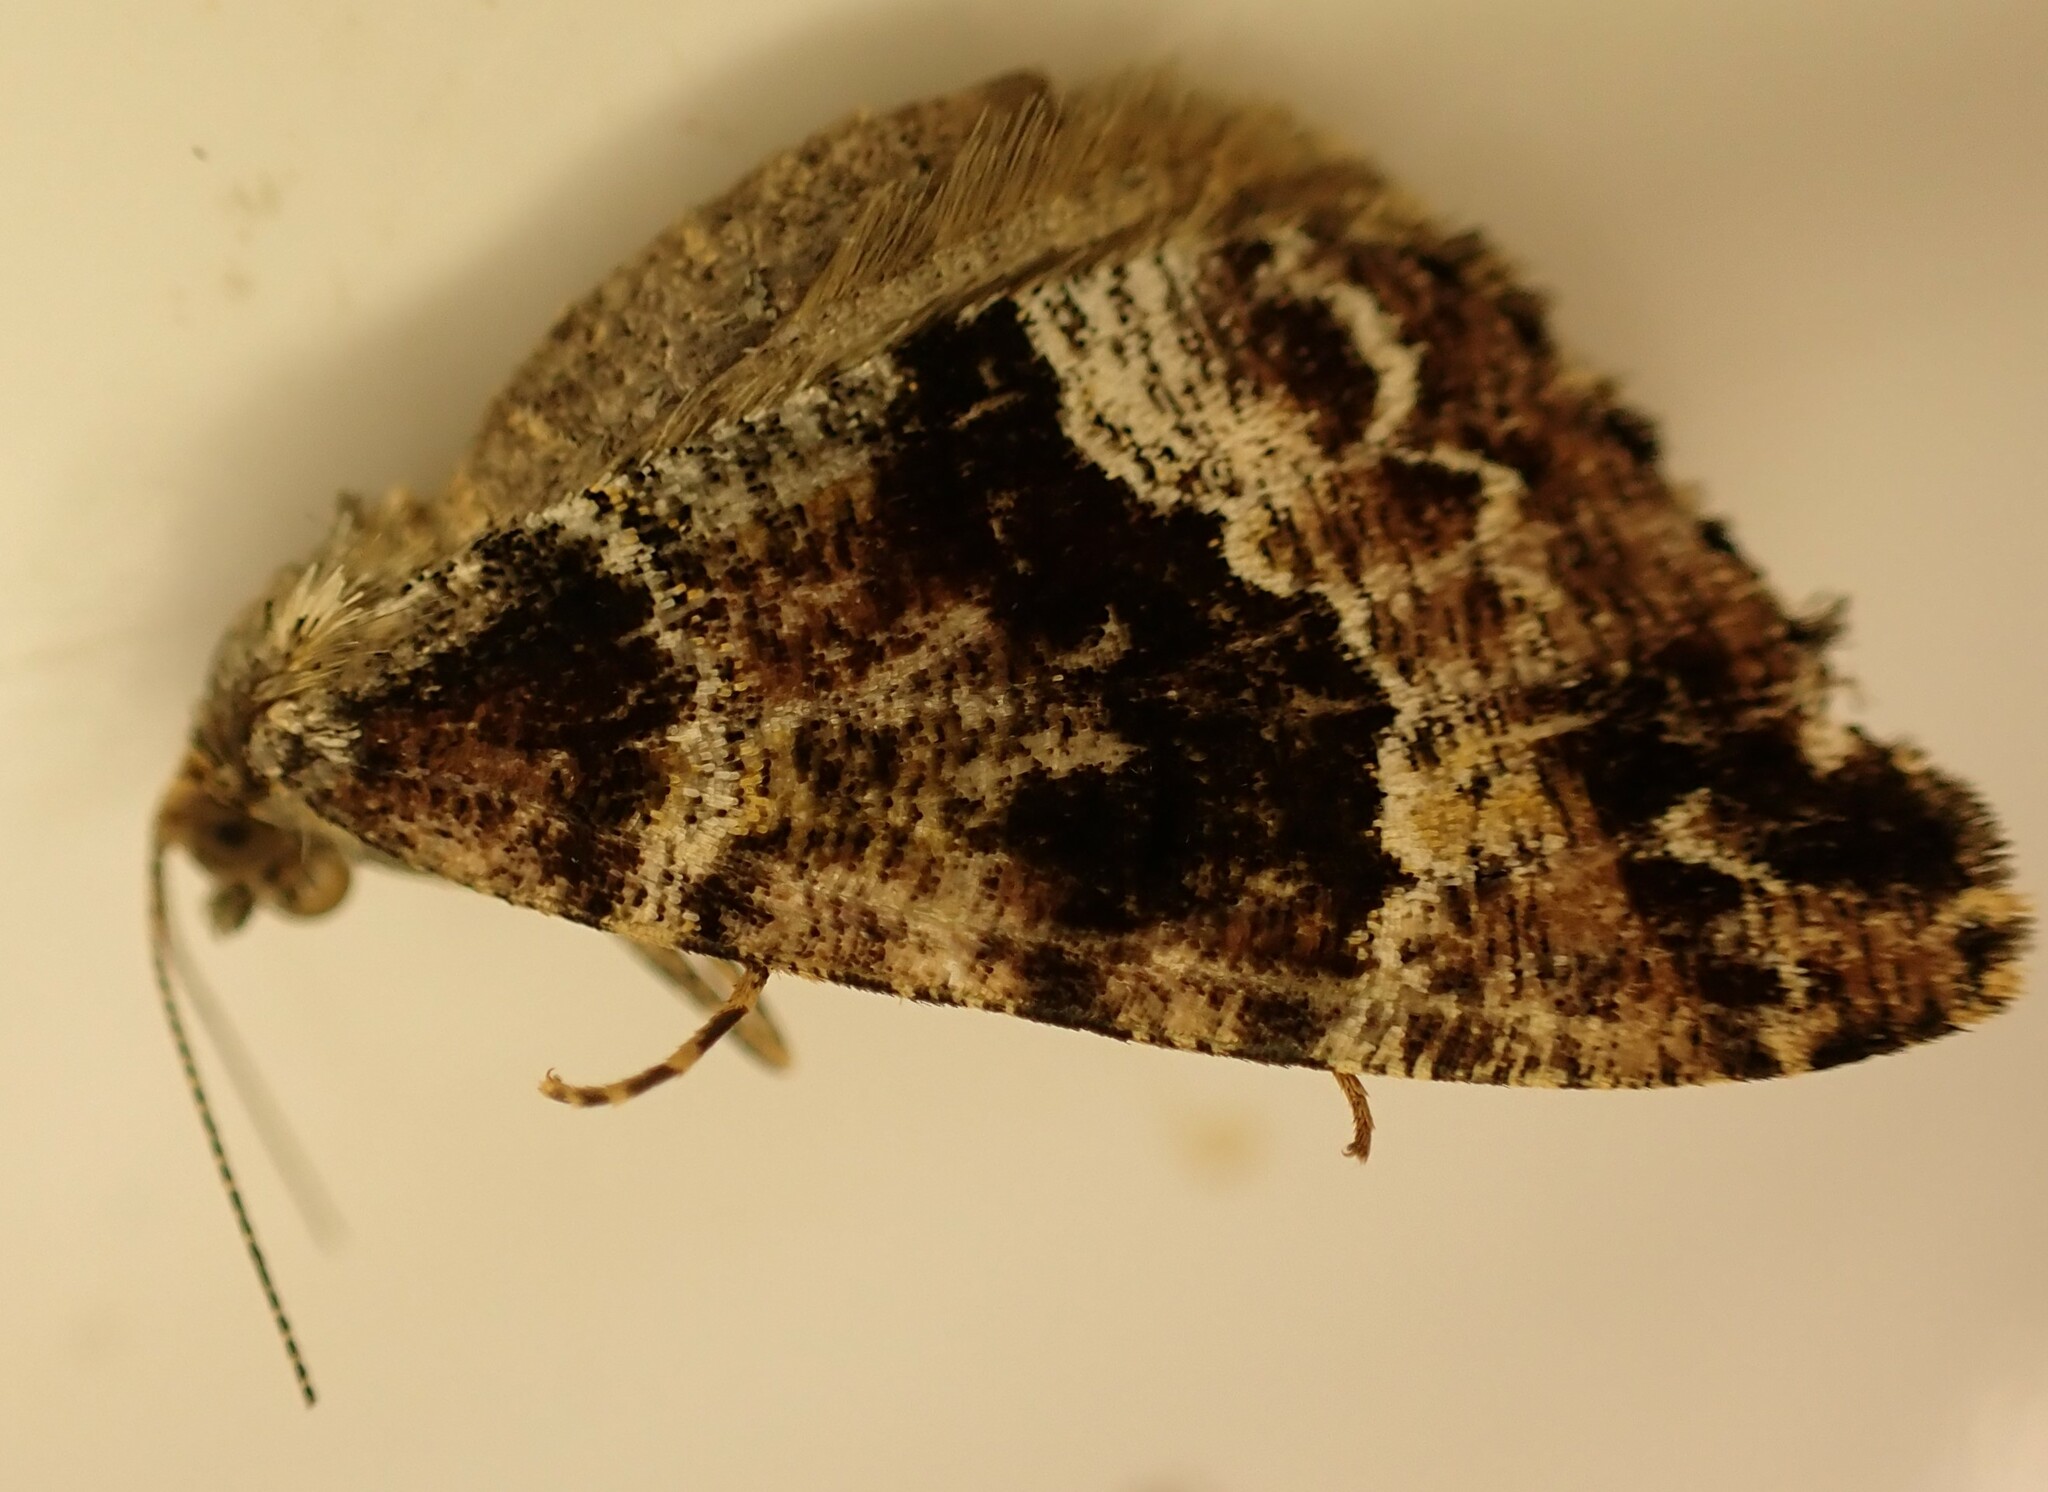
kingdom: Animalia
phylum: Arthropoda
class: Insecta
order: Lepidoptera
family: Geometridae
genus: Pseudocoremia
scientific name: Pseudocoremia productata
